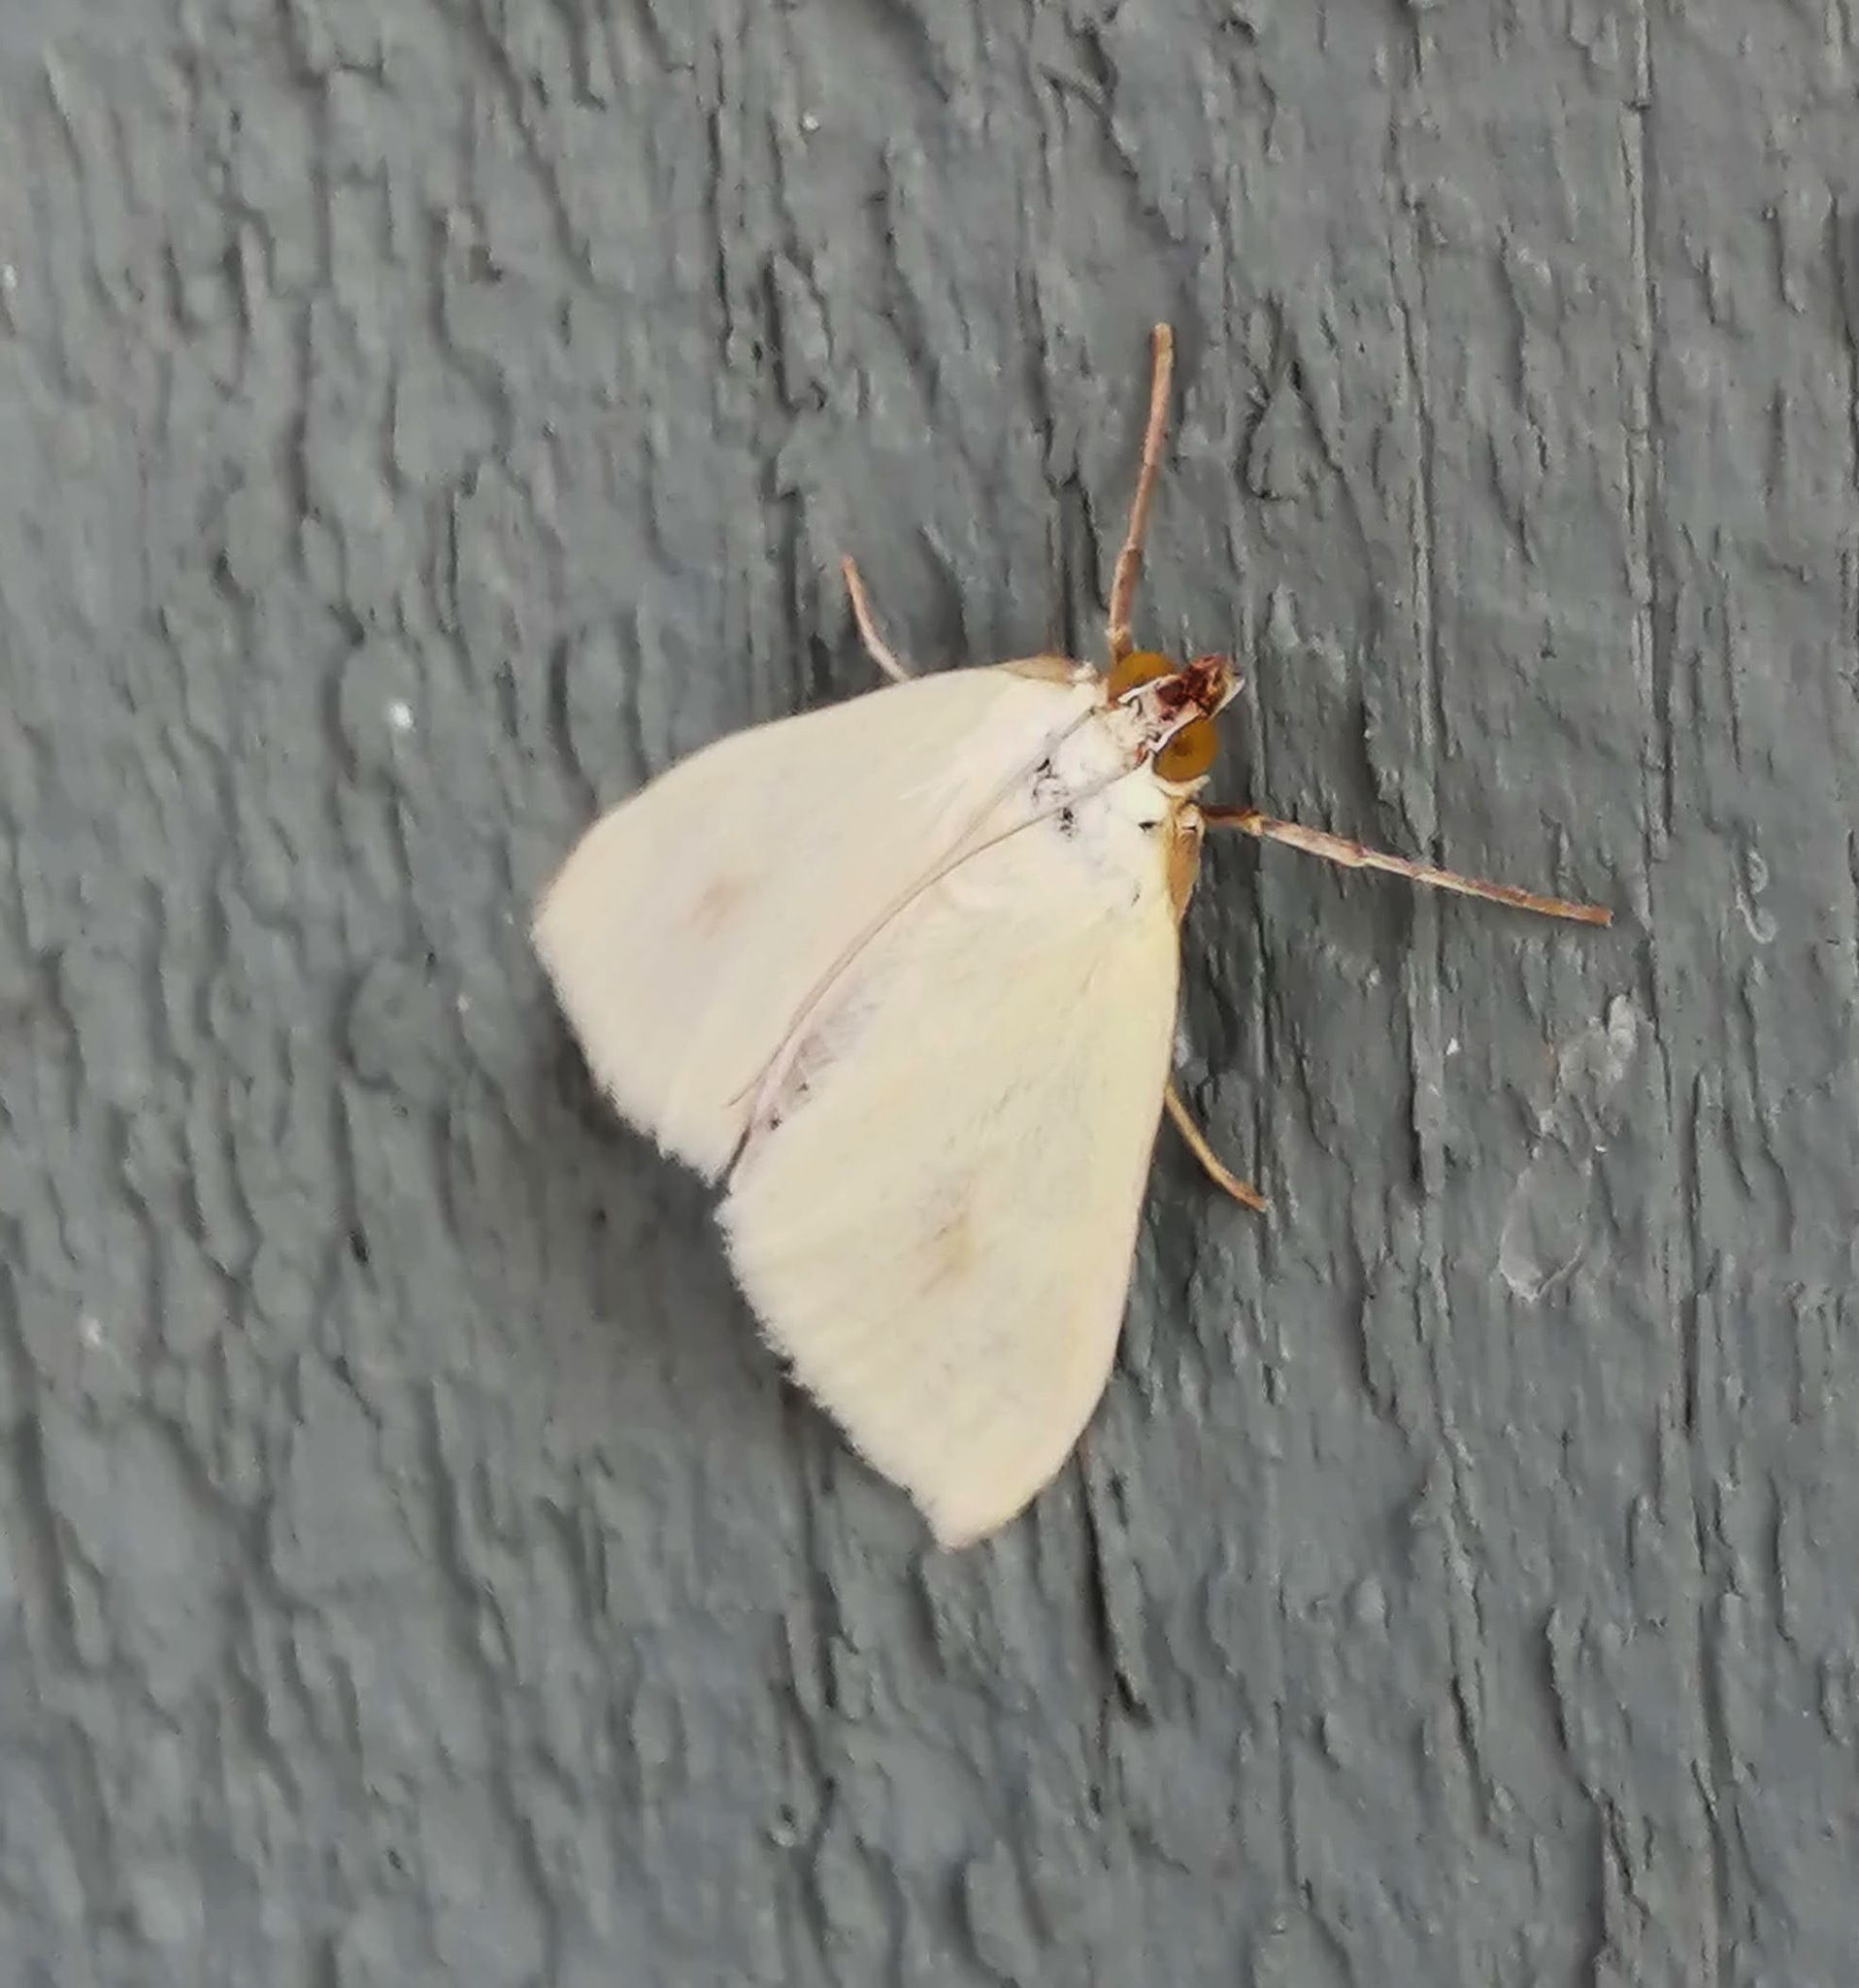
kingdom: Animalia
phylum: Arthropoda
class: Insecta
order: Lepidoptera
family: Crambidae
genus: Sitochroa
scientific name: Sitochroa palealis
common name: Greenish-yellow sitochroa moth
